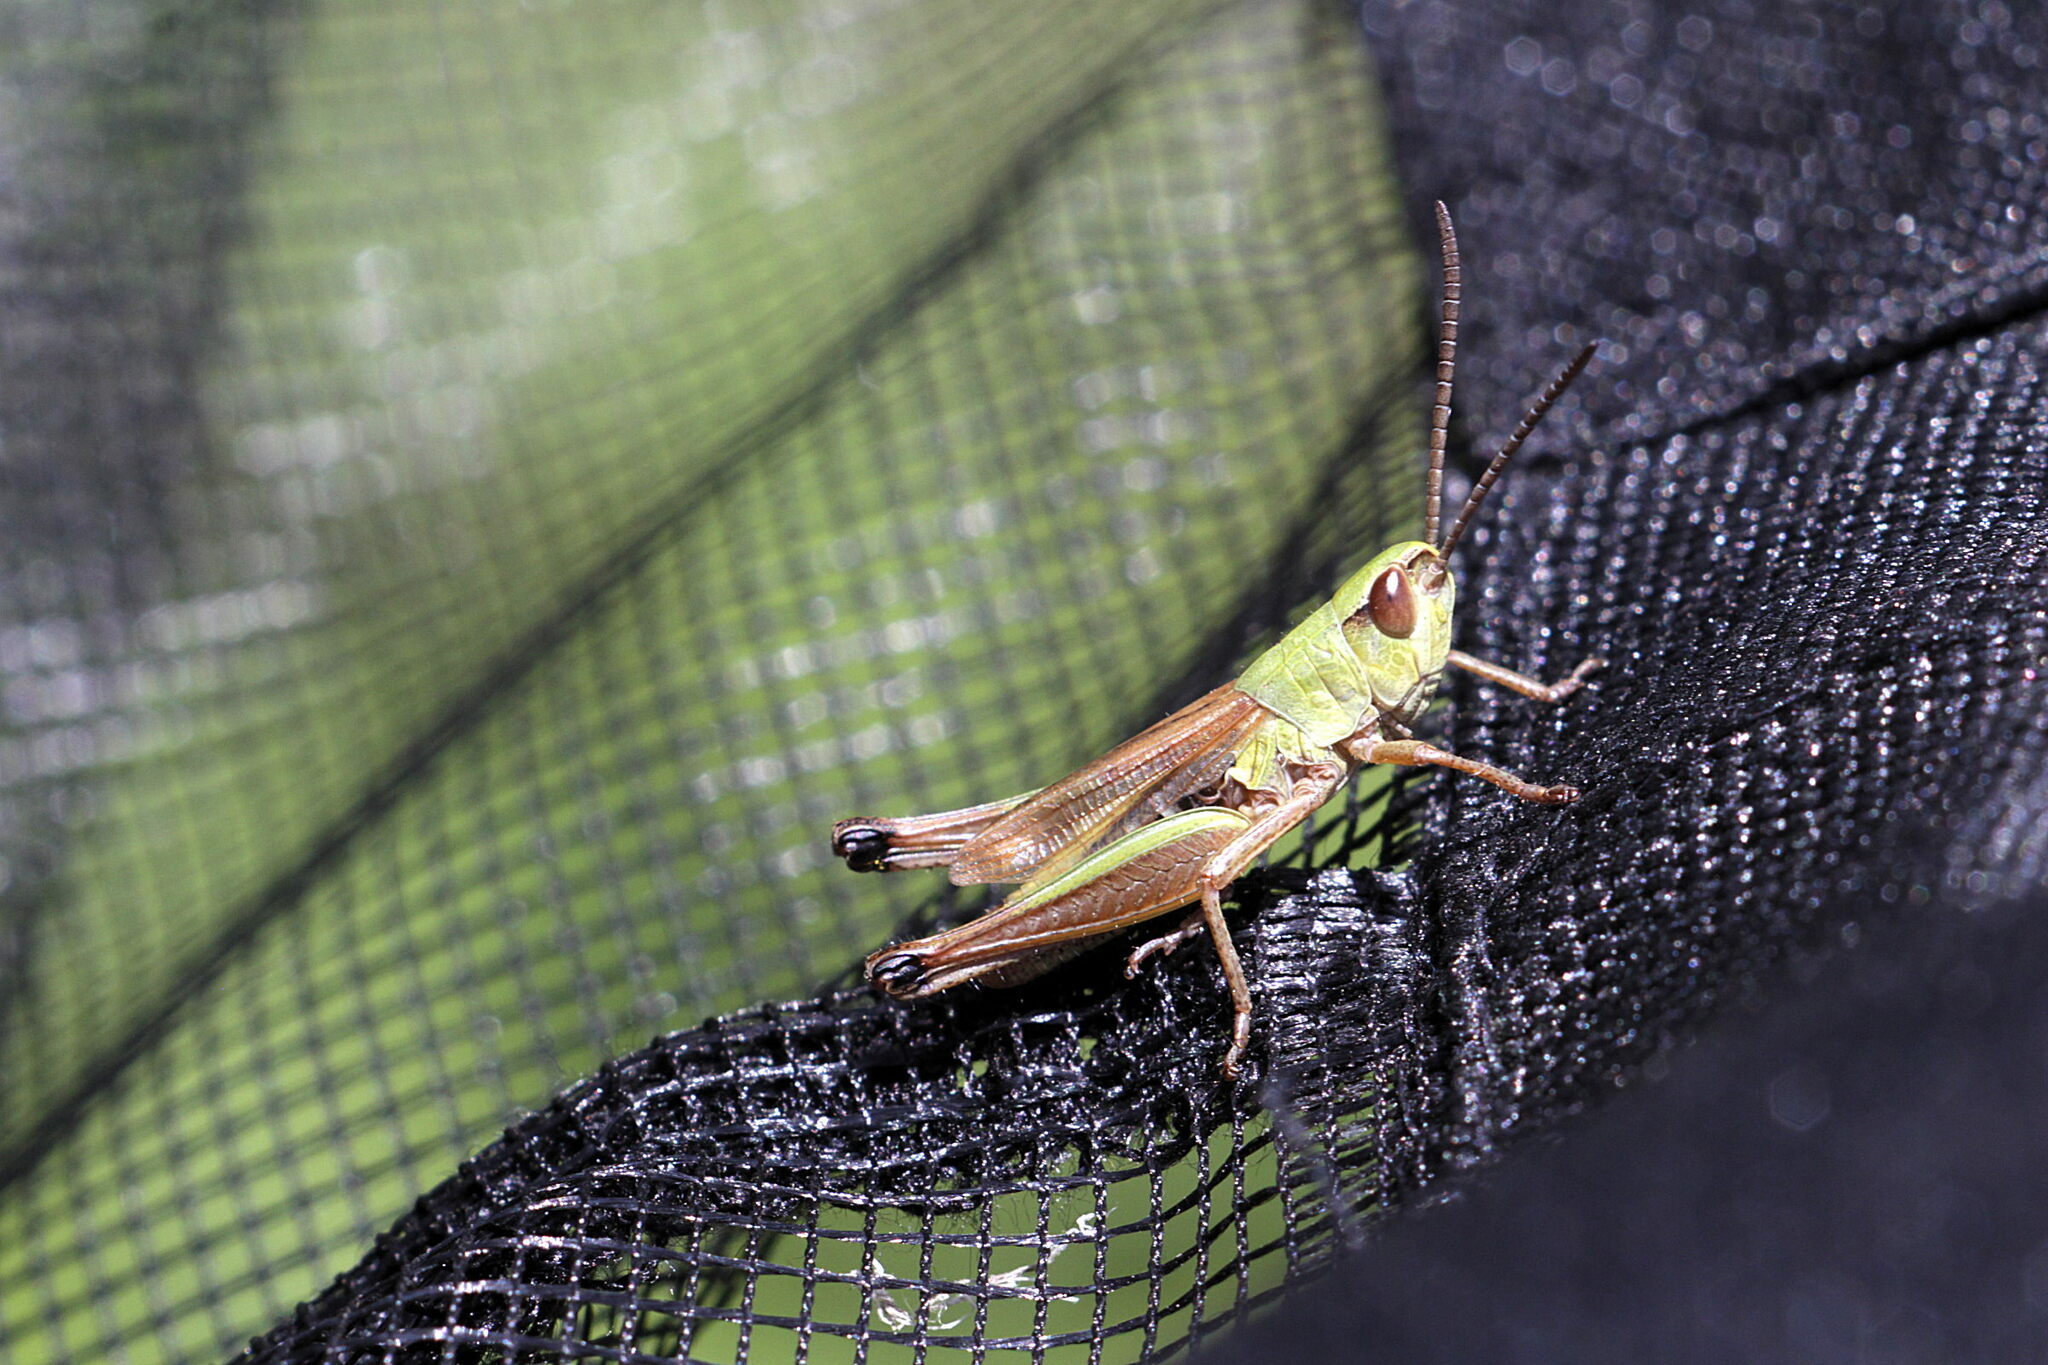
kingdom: Animalia
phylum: Arthropoda
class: Insecta
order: Orthoptera
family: Acrididae
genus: Pseudochorthippus
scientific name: Pseudochorthippus parallelus
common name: Meadow grasshopper
